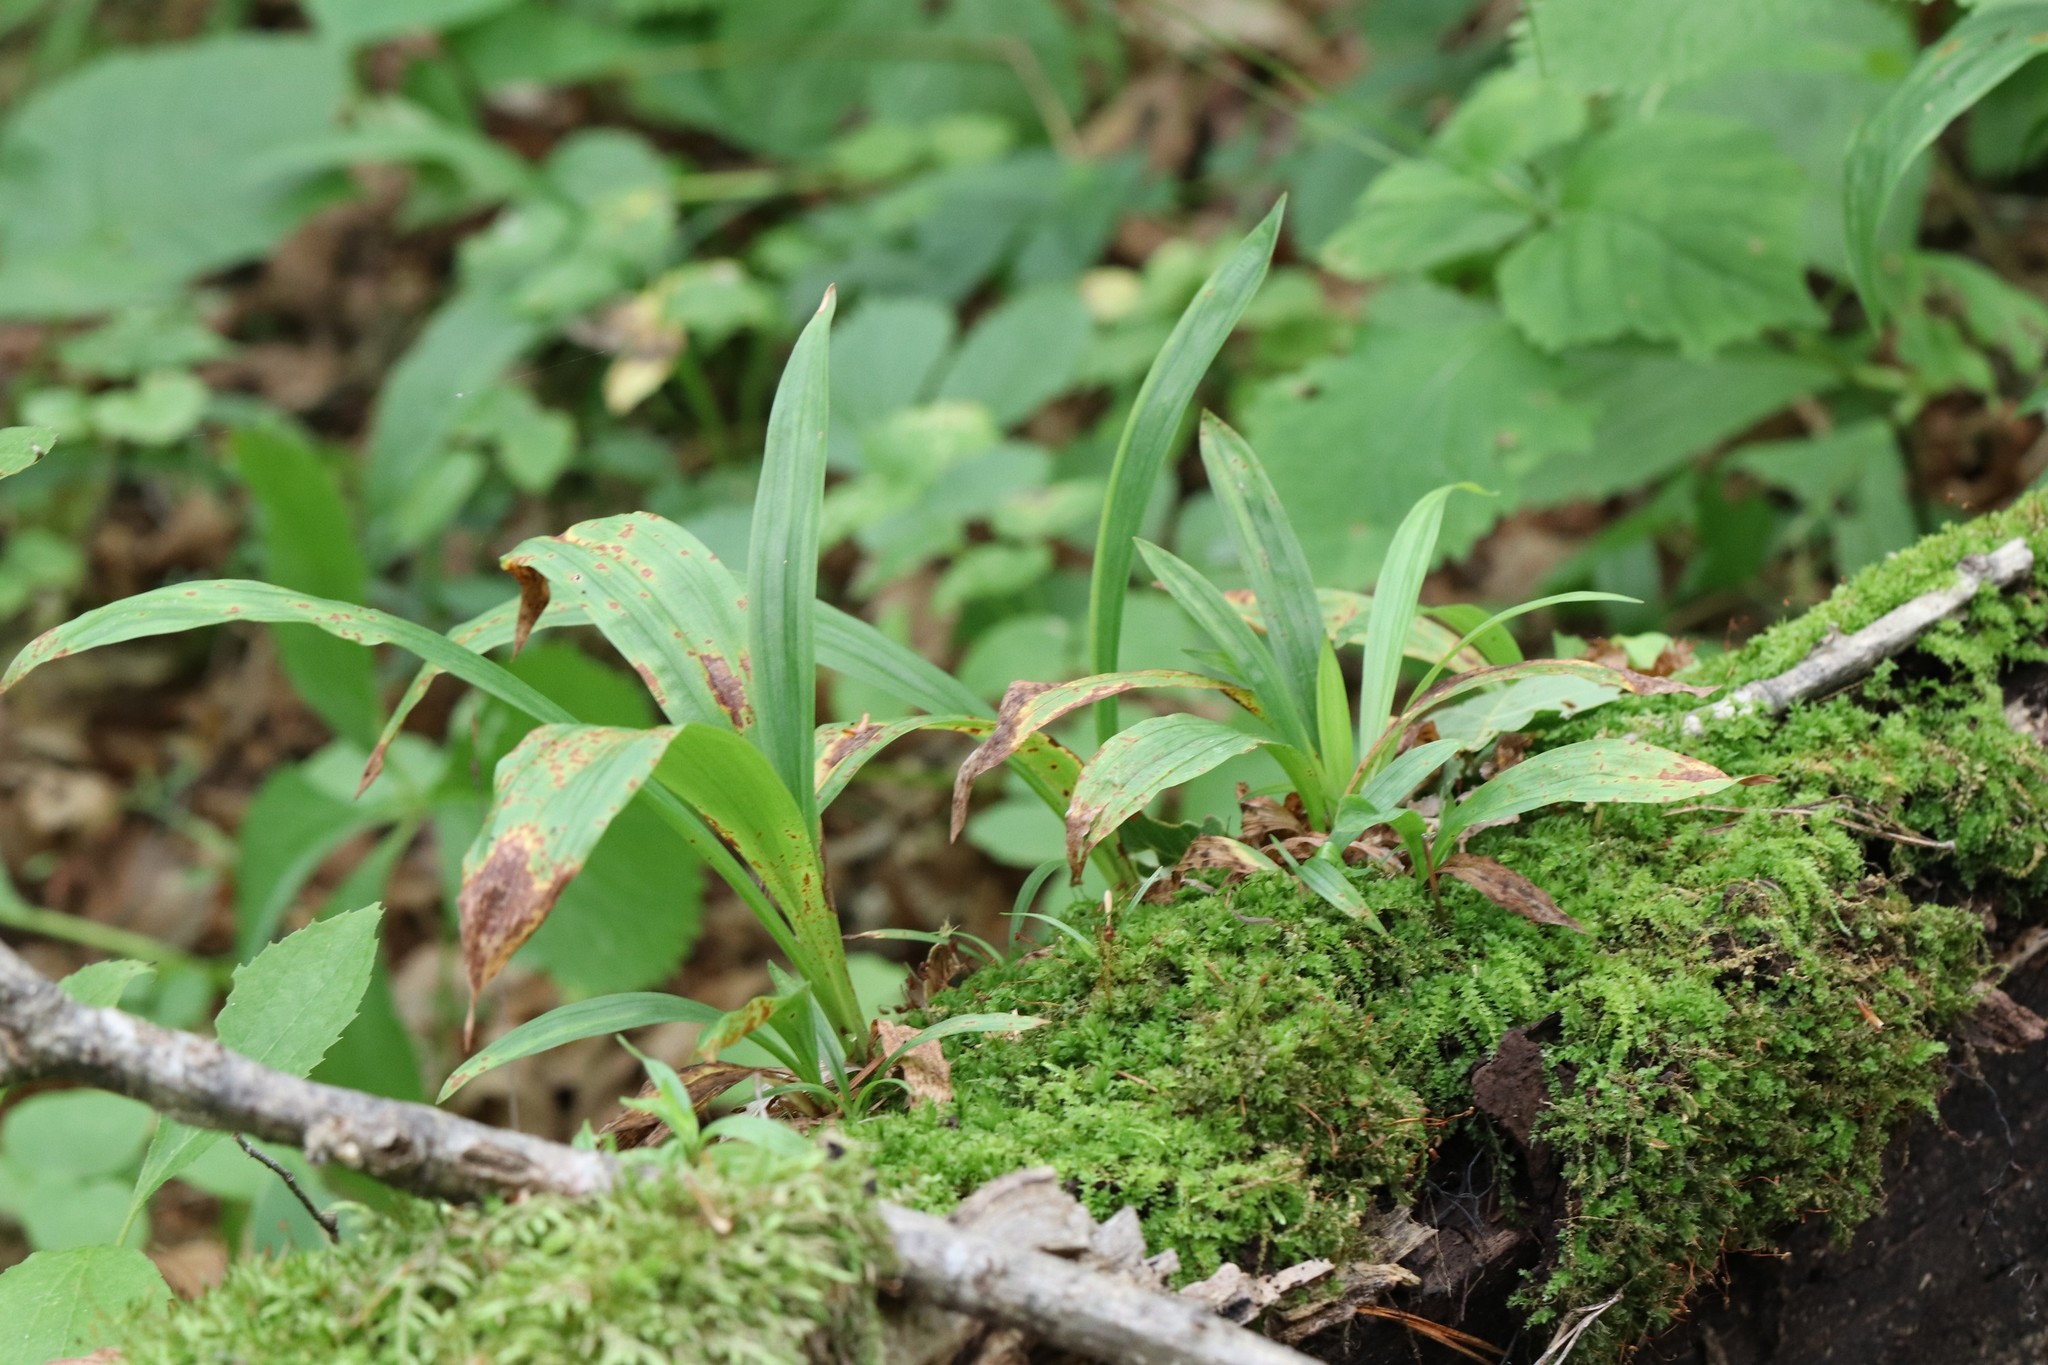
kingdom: Plantae
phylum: Tracheophyta
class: Liliopsida
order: Poales
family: Cyperaceae
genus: Carex
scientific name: Carex siderosticta
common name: Broadleaf sedge
